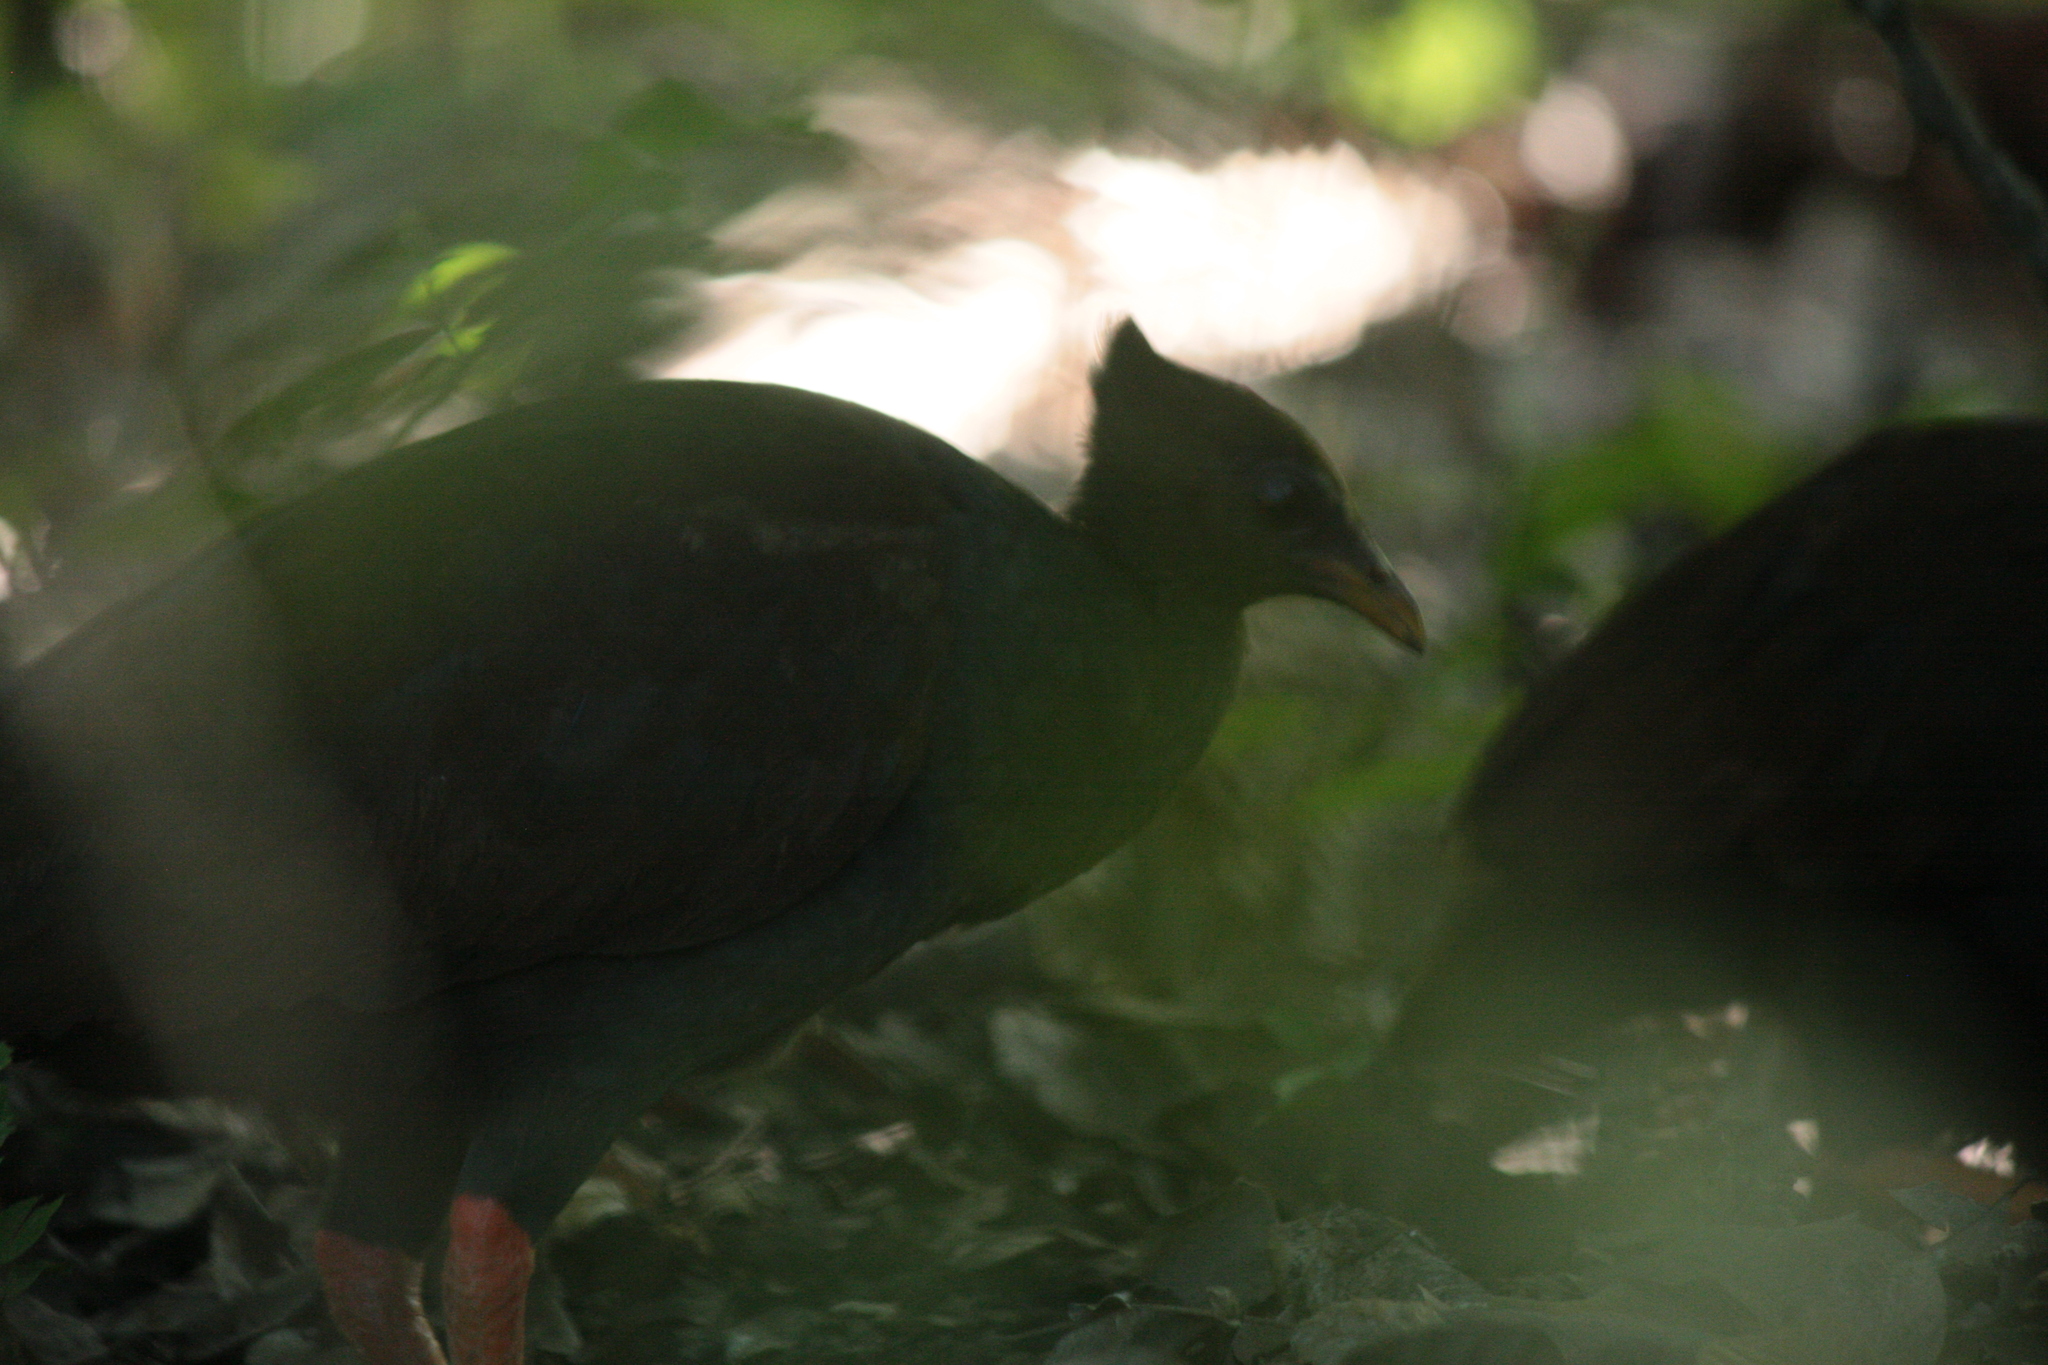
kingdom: Animalia
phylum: Chordata
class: Aves
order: Galliformes
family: Megapodiidae
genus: Megapodius
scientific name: Megapodius reinwardt
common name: Orange-footed scrubfowl
